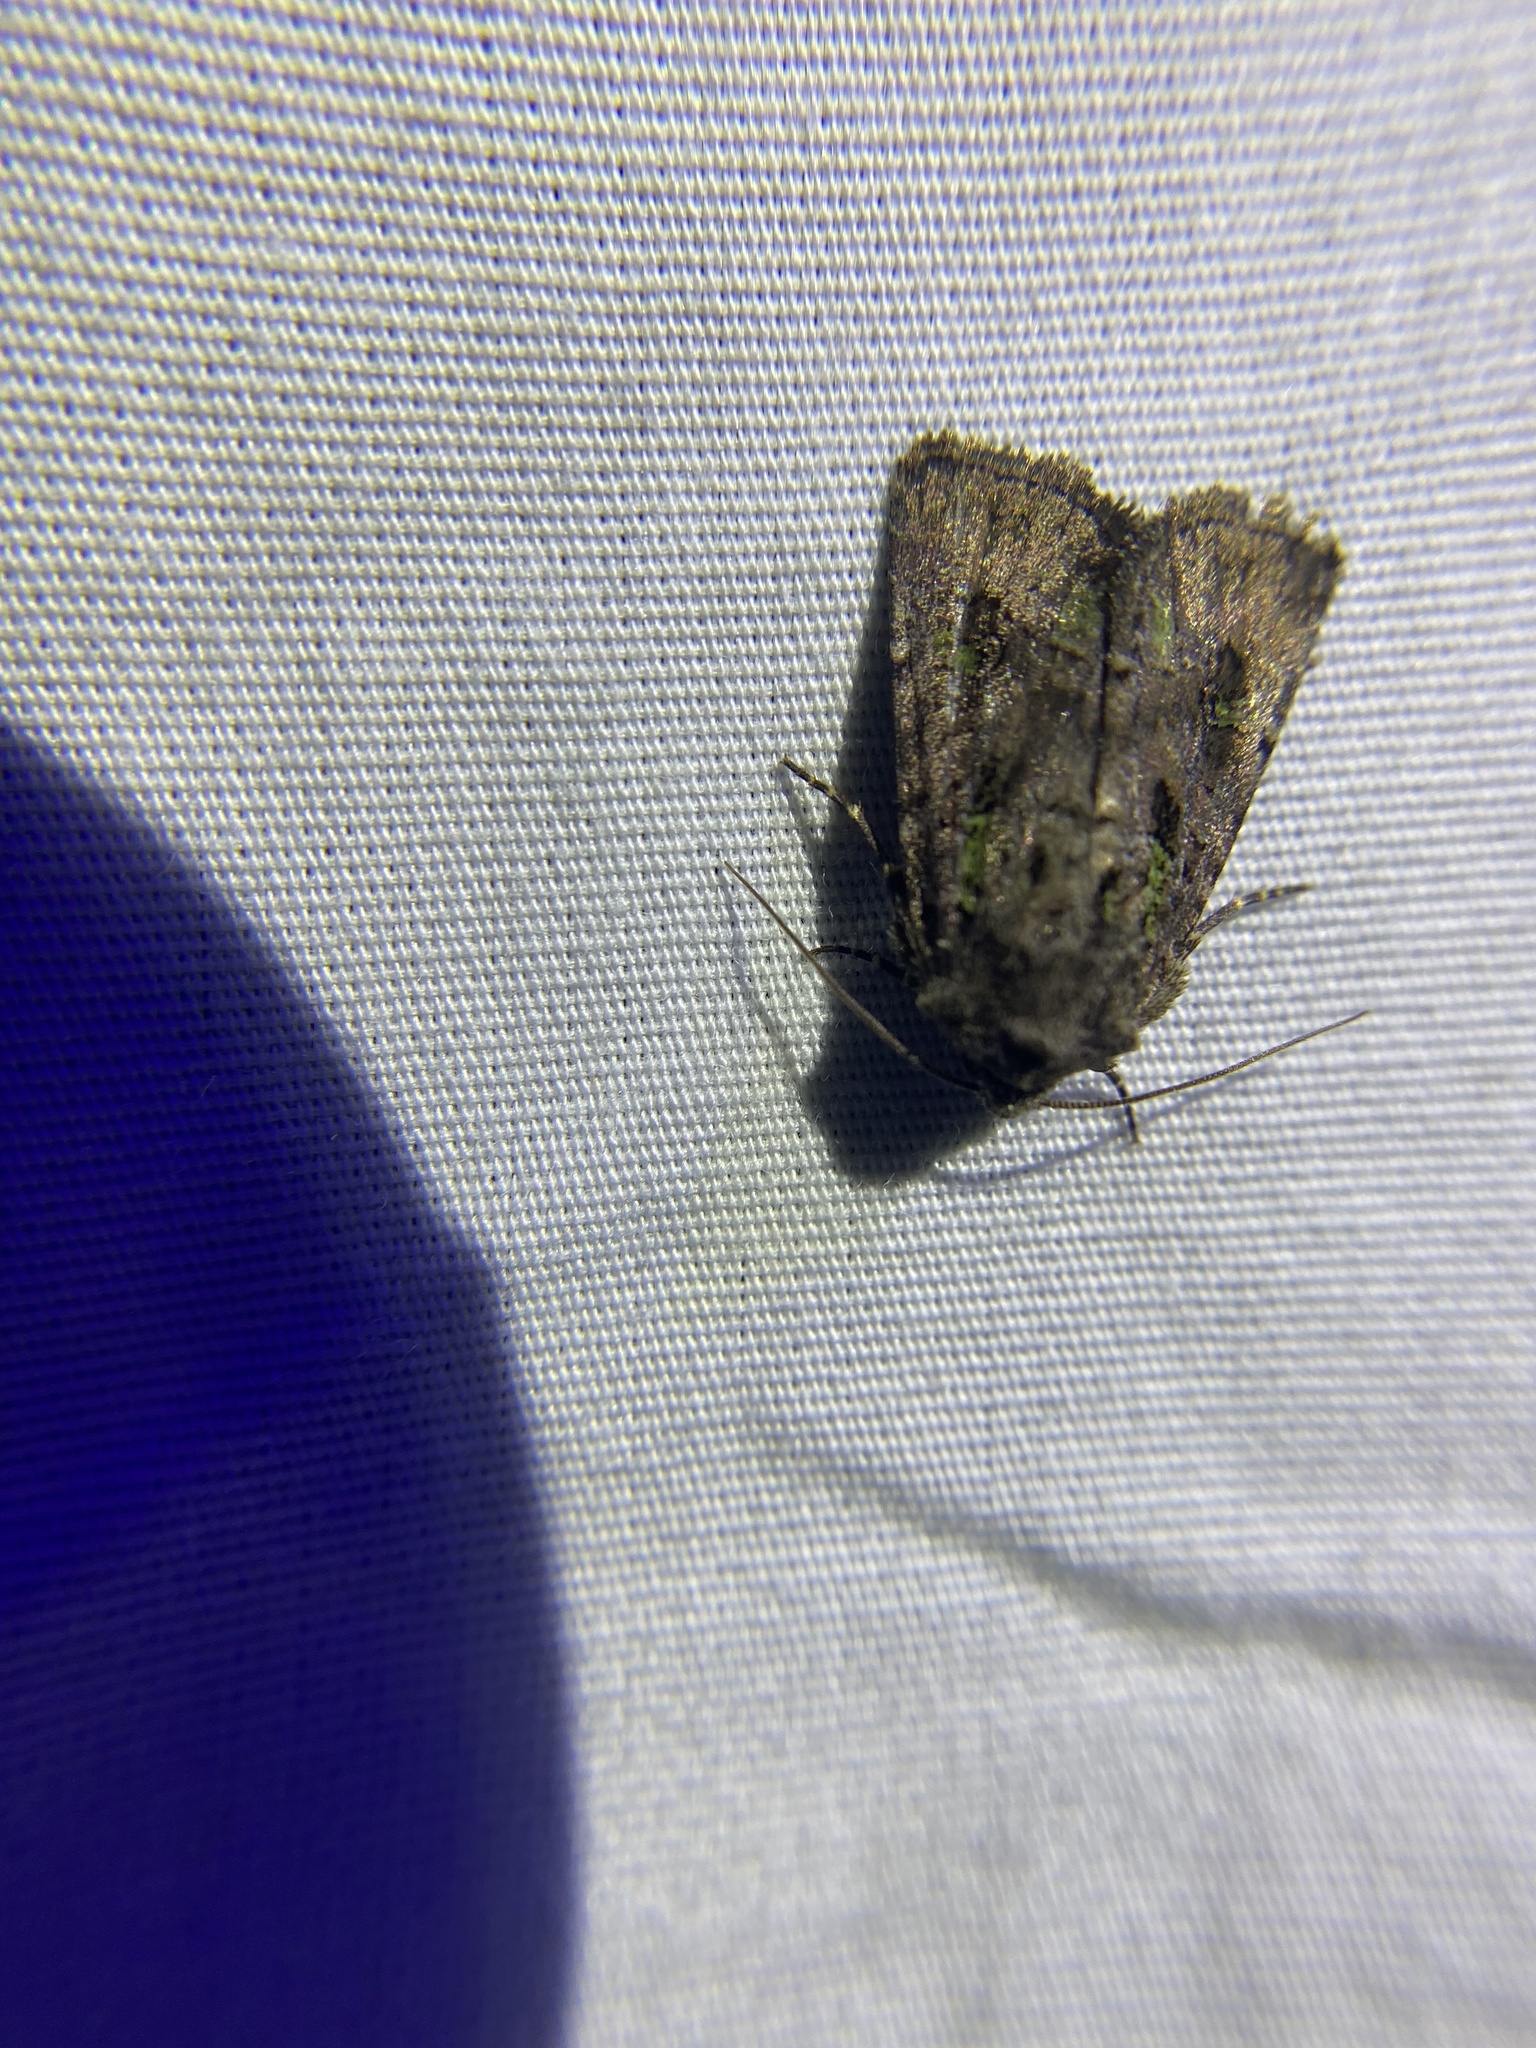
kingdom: Animalia
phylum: Arthropoda
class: Insecta
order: Lepidoptera
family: Noctuidae
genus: Lacinipolia
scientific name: Lacinipolia renigera
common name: Kidney-spotted minor
